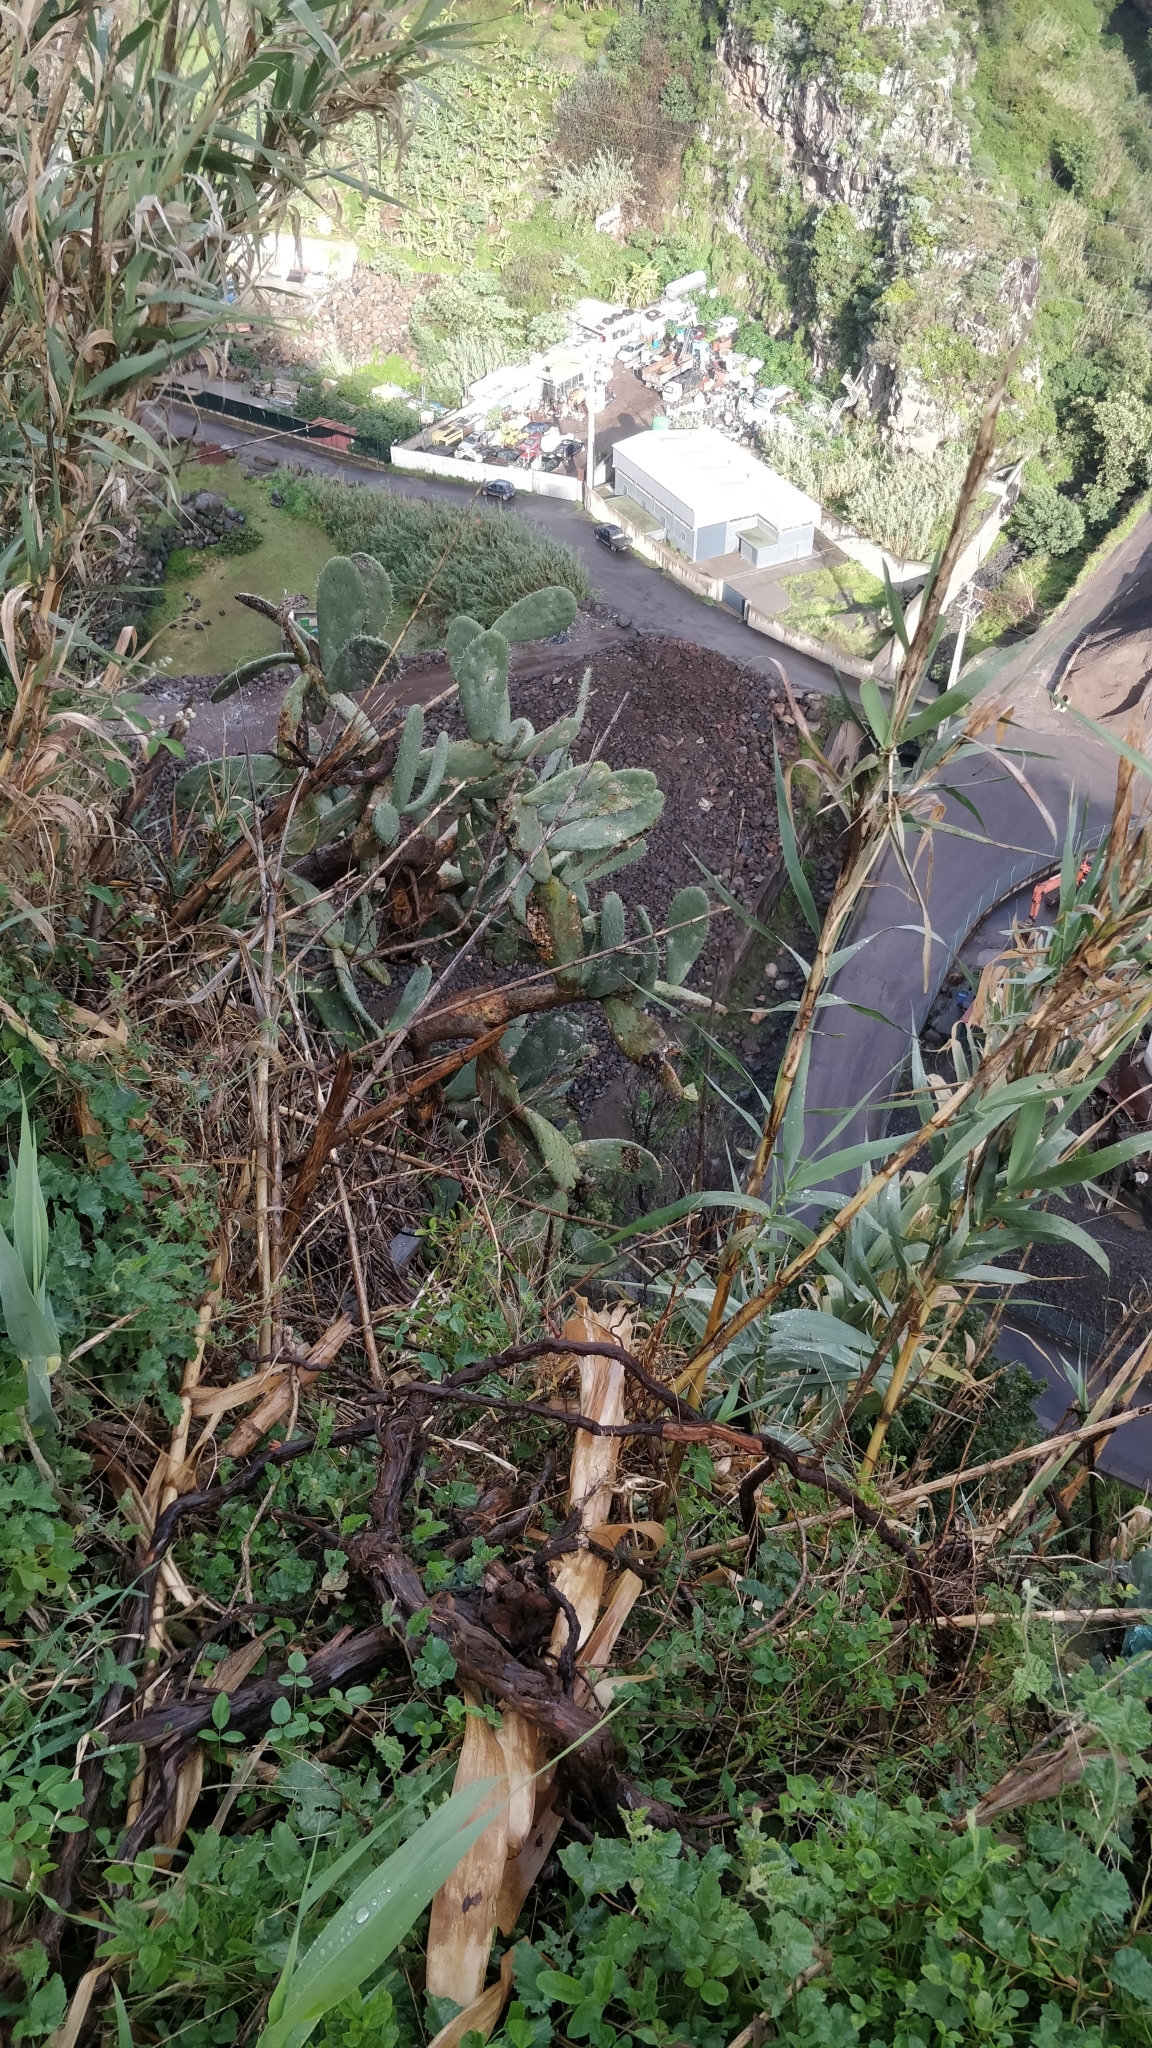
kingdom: Plantae
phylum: Tracheophyta
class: Magnoliopsida
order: Caryophyllales
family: Cactaceae
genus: Opuntia
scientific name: Opuntia ficus-indica
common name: Barbary fig
